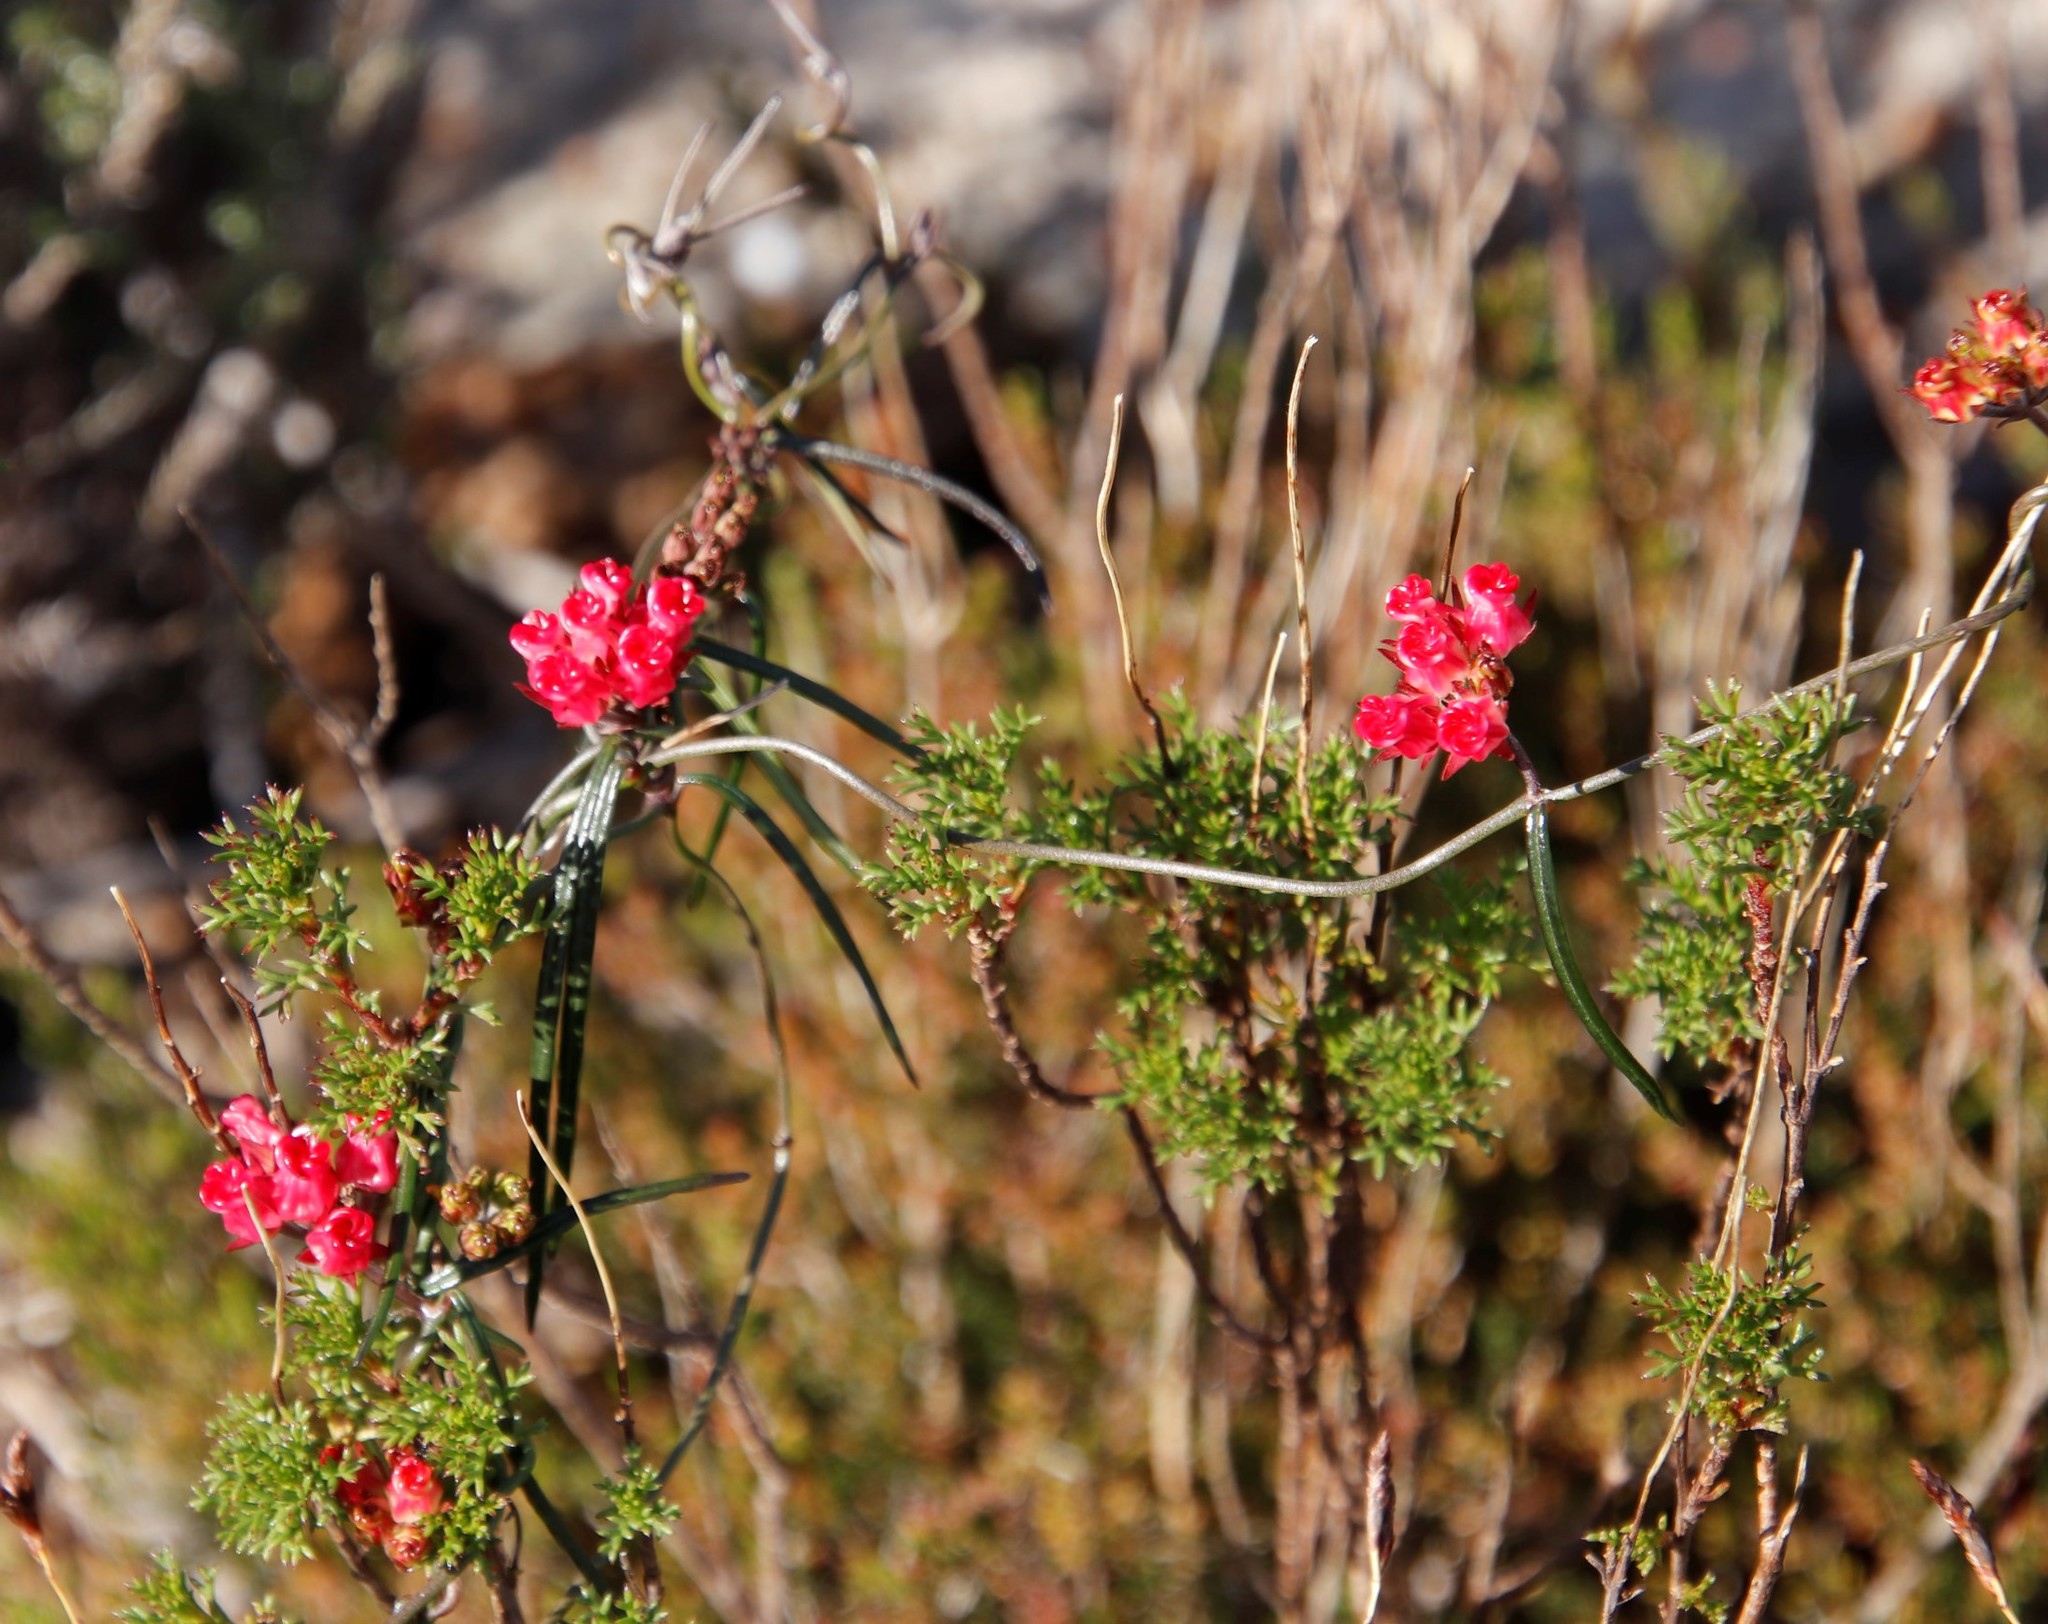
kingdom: Plantae
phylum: Tracheophyta
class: Magnoliopsida
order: Gentianales
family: Apocynaceae
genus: Microloma
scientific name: Microloma tenuifolium
